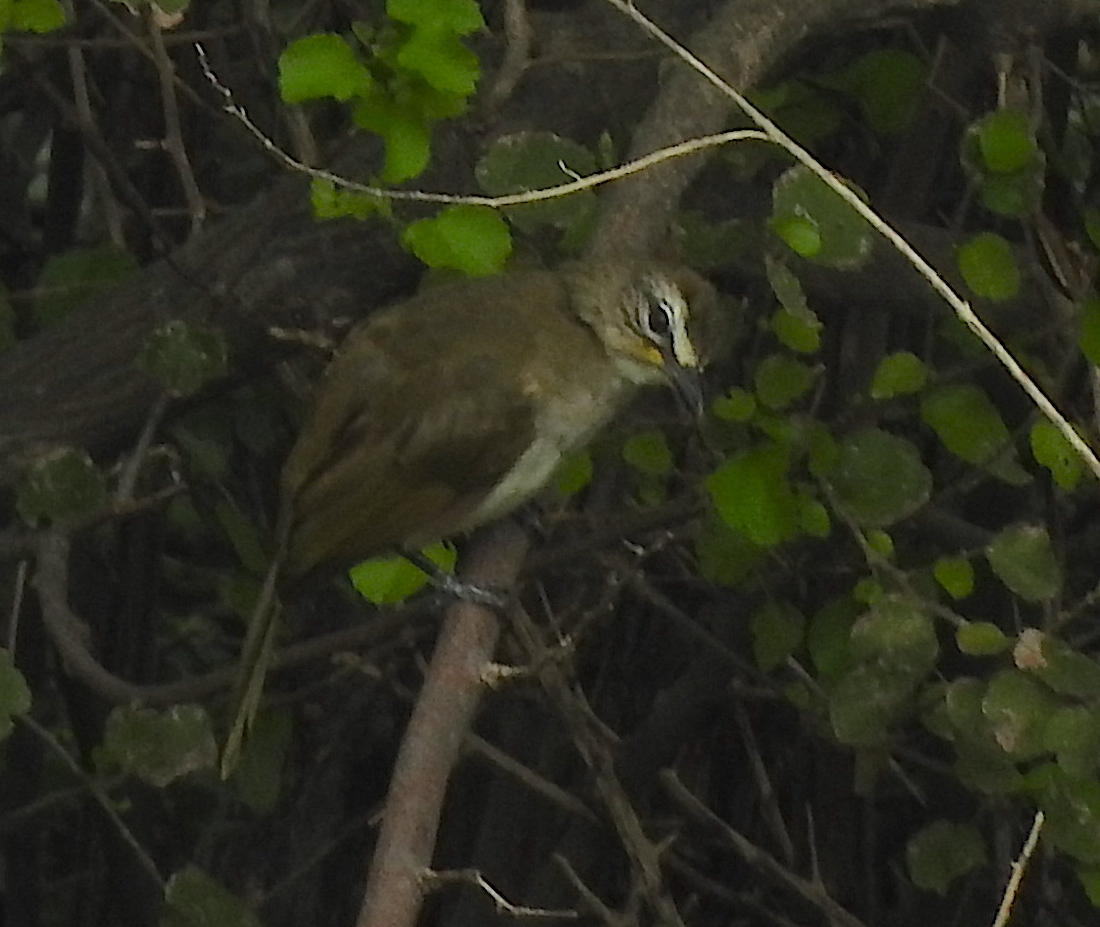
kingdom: Animalia
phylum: Chordata
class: Aves
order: Passeriformes
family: Pycnonotidae
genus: Pycnonotus
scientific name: Pycnonotus luteolus
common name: White-browed bulbul
